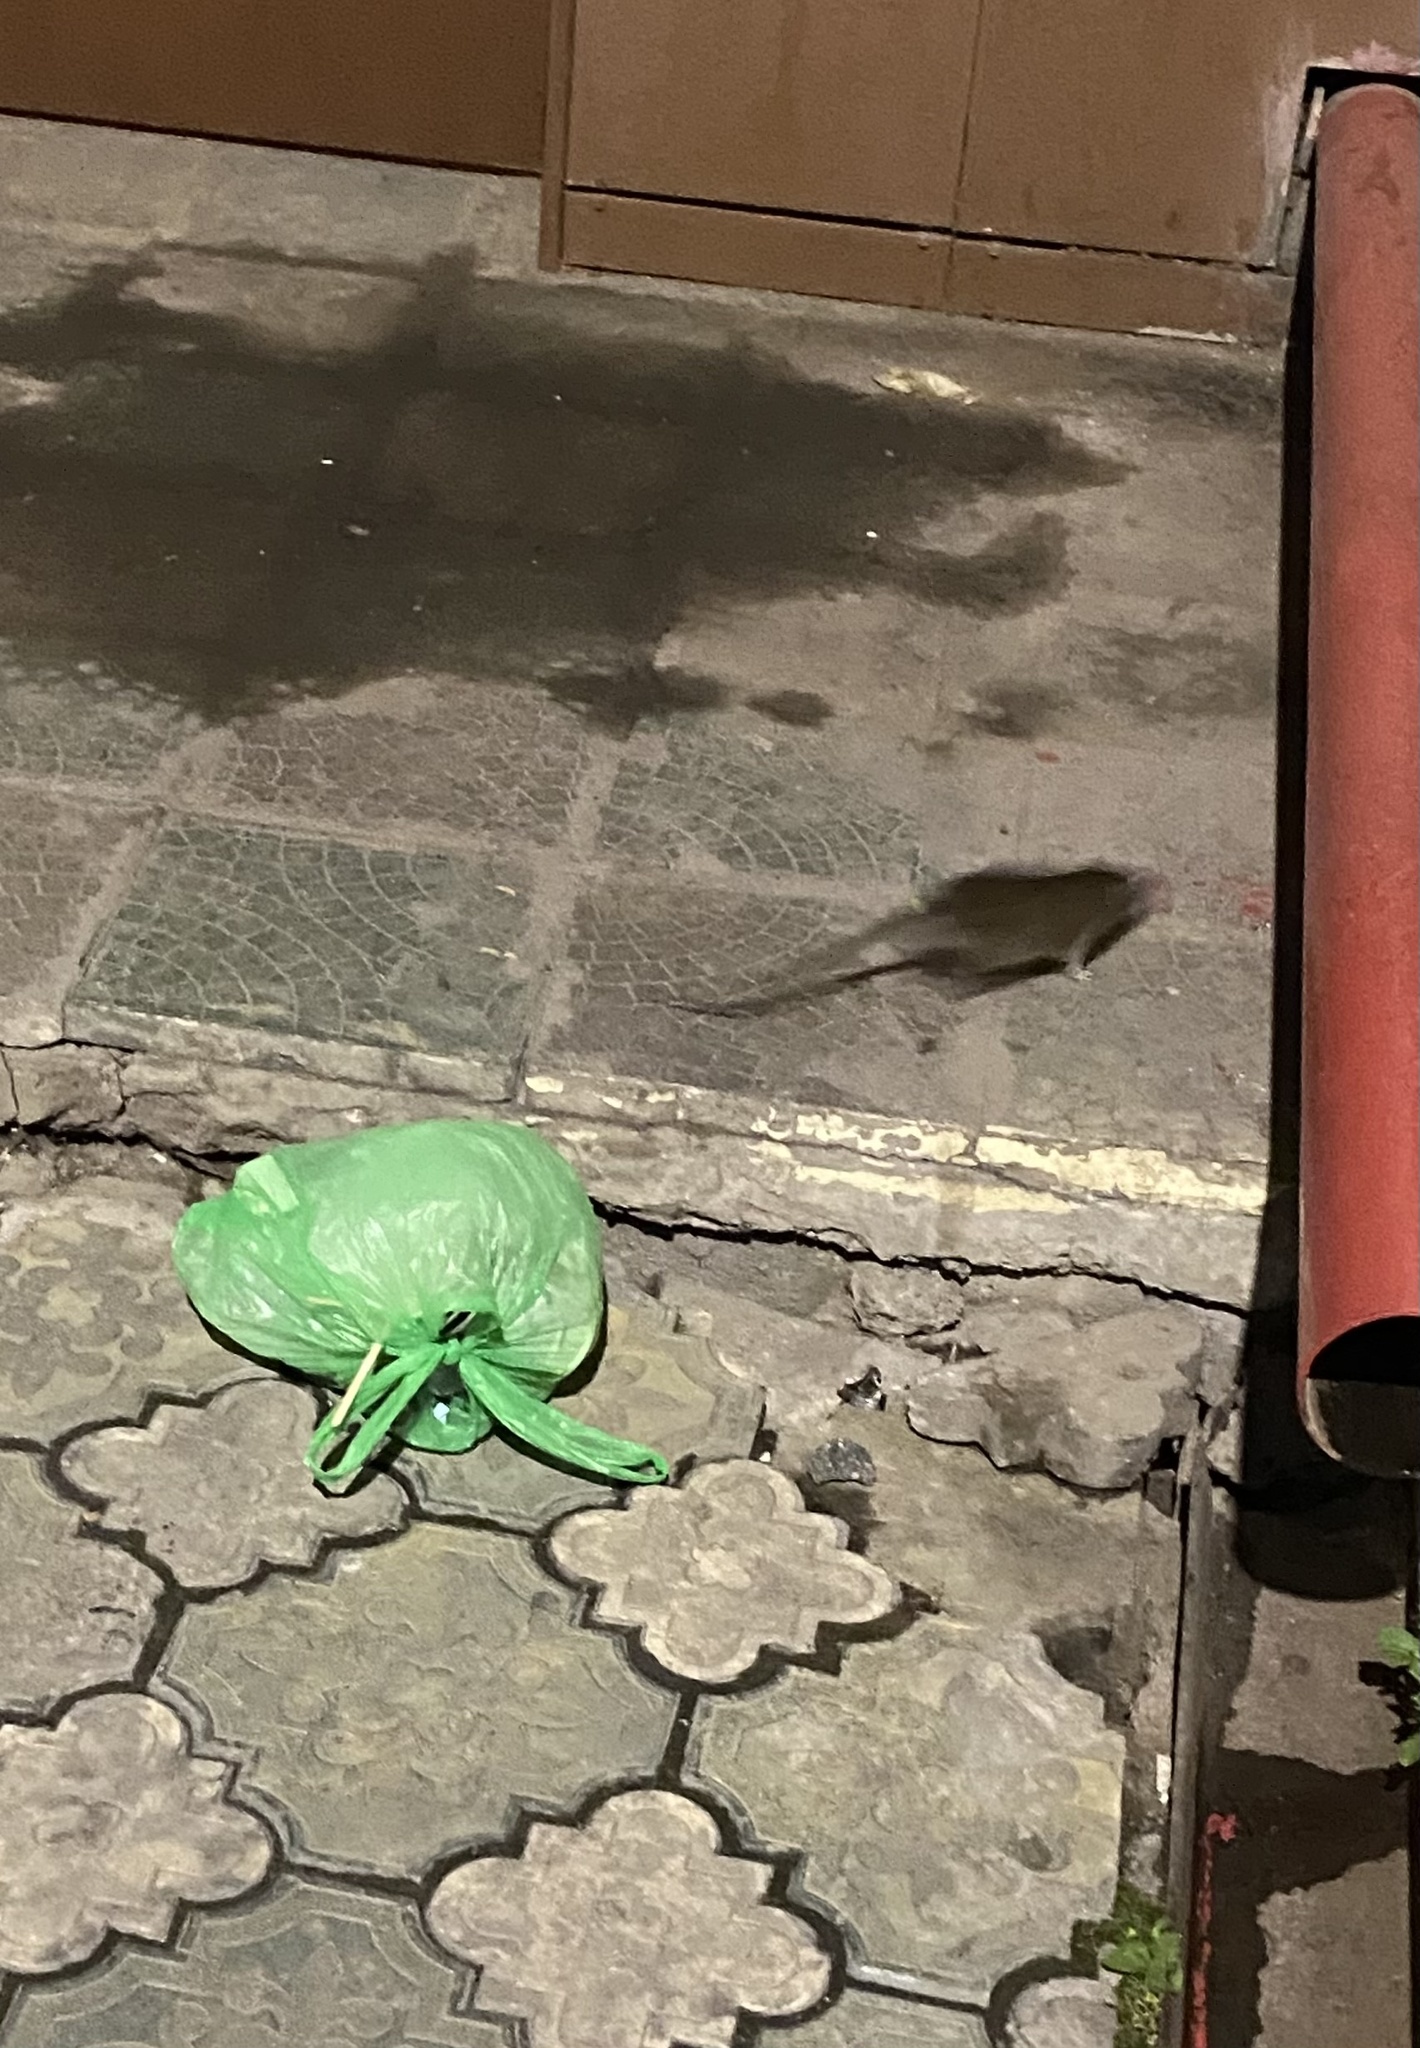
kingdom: Animalia
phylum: Chordata
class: Mammalia
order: Rodentia
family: Muridae
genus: Rattus
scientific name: Rattus norvegicus
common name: Brown rat
